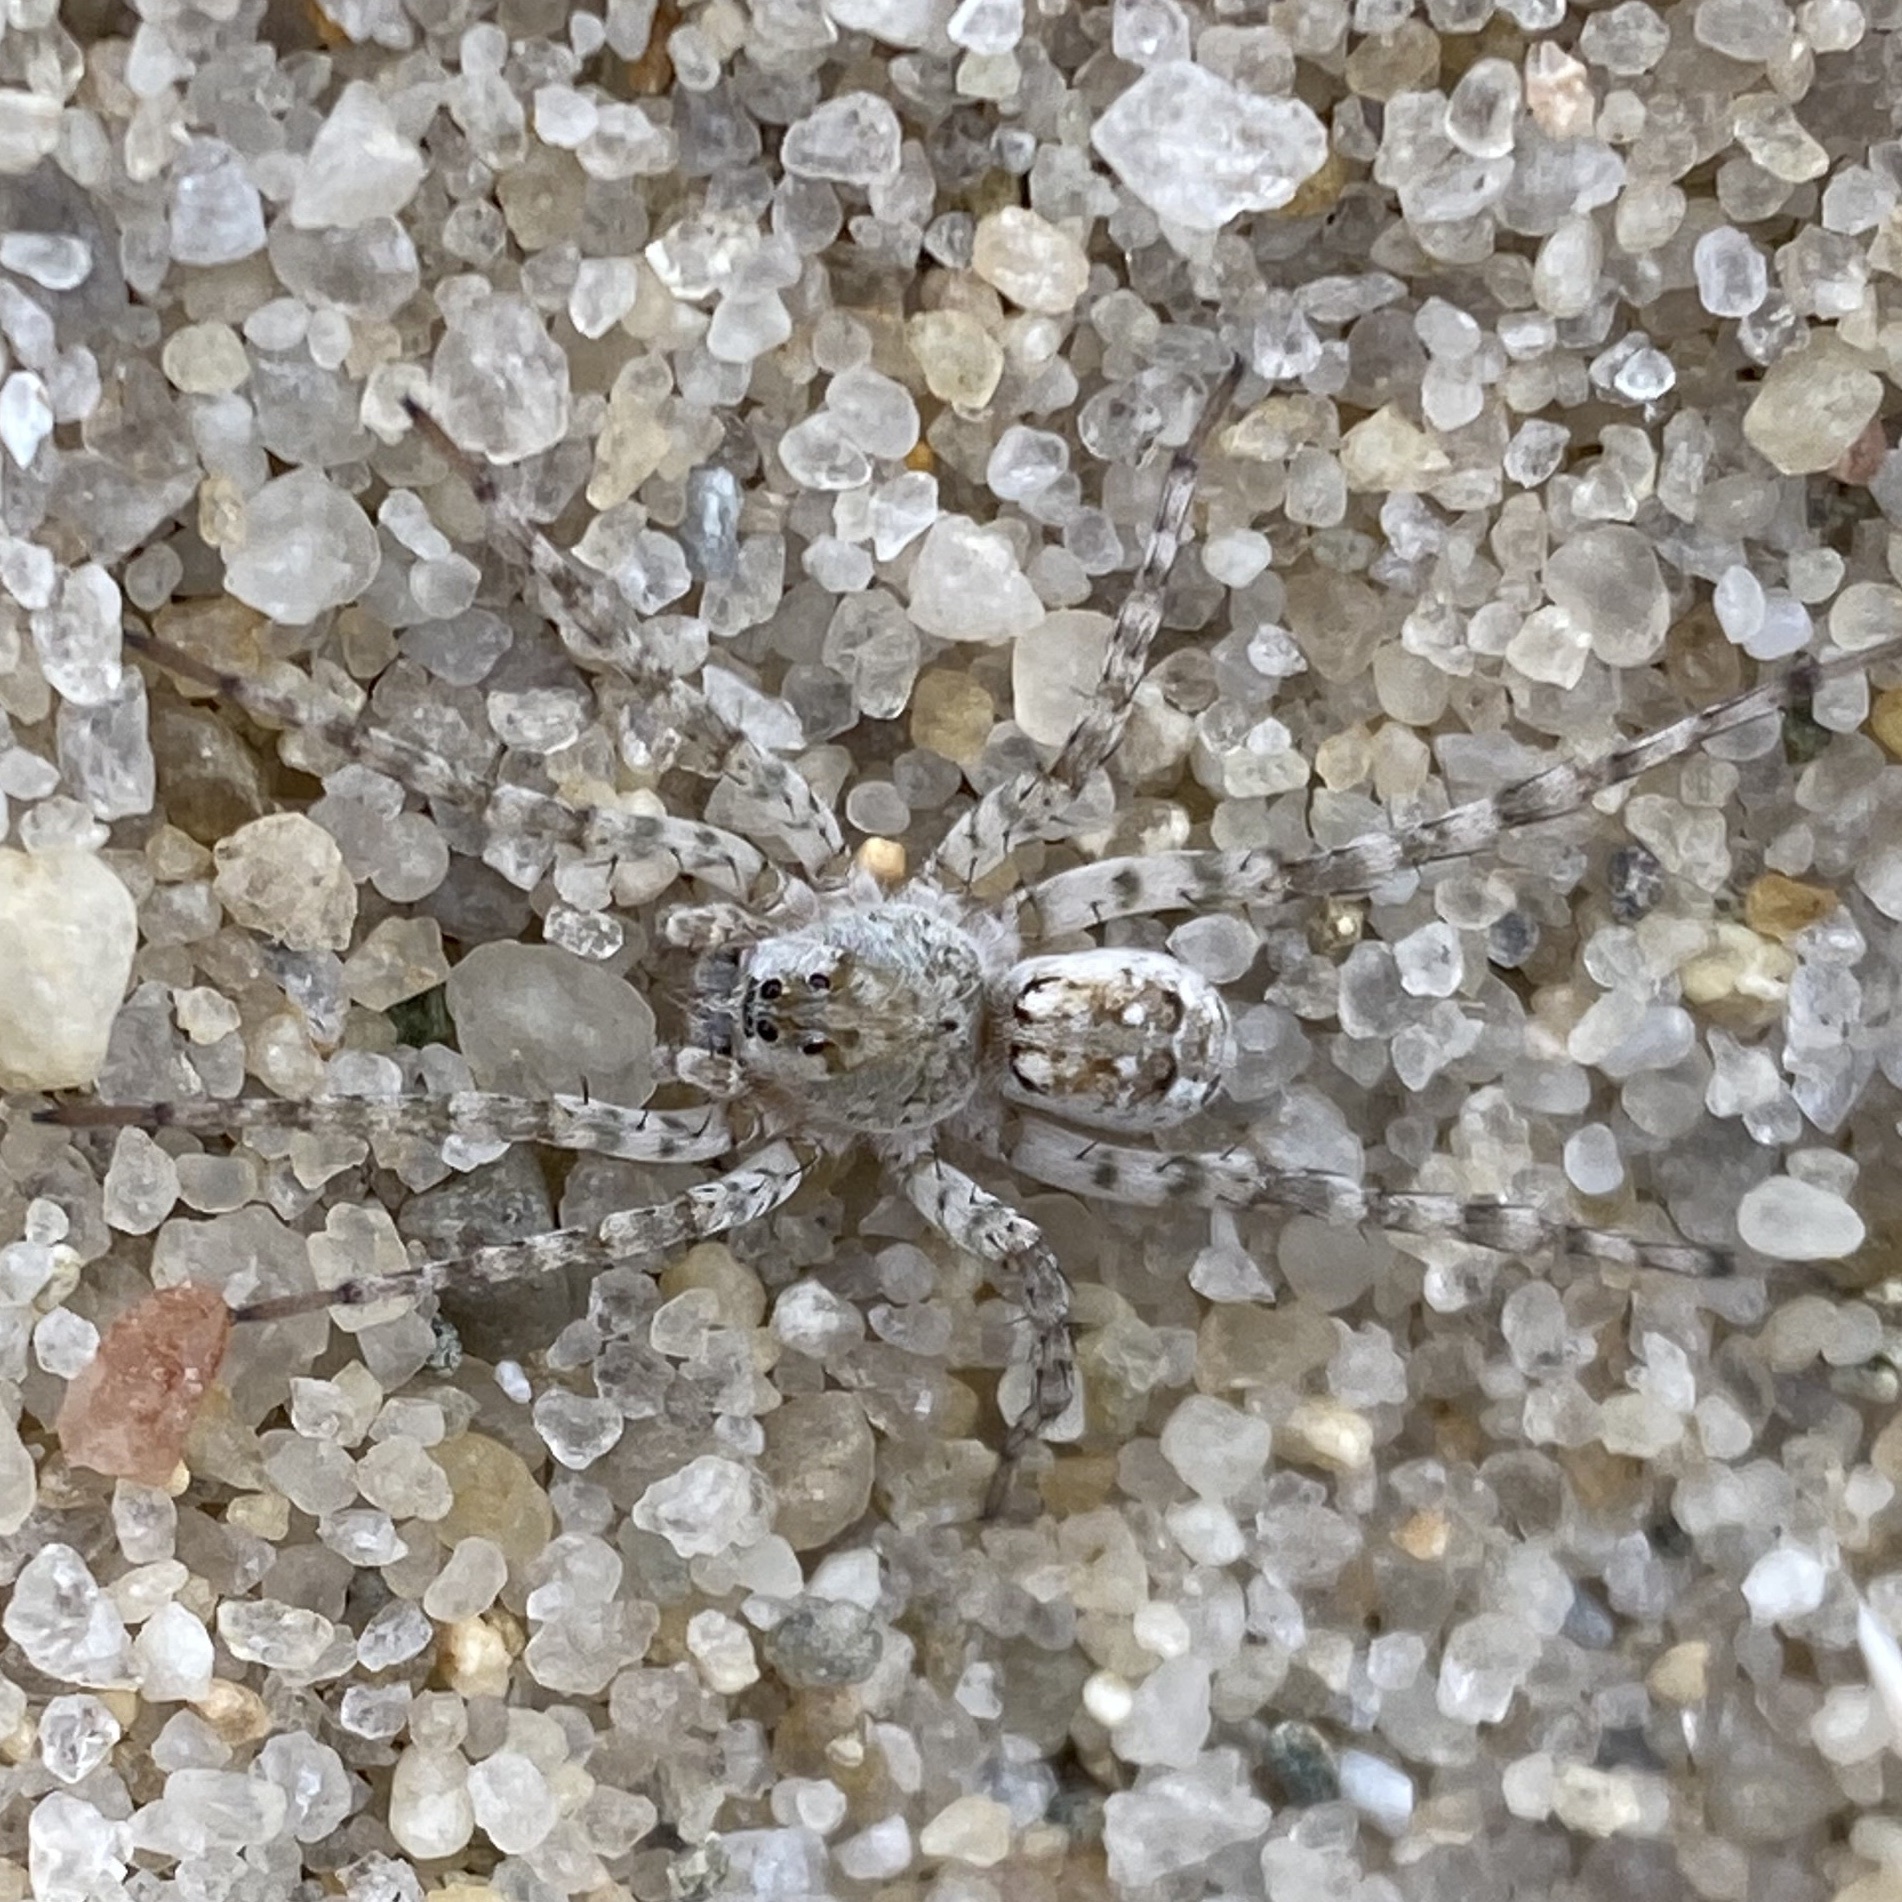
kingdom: Animalia
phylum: Arthropoda
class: Arachnida
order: Araneae
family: Lycosidae
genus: Arctosa
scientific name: Arctosa littoralis
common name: Wolf spiders
